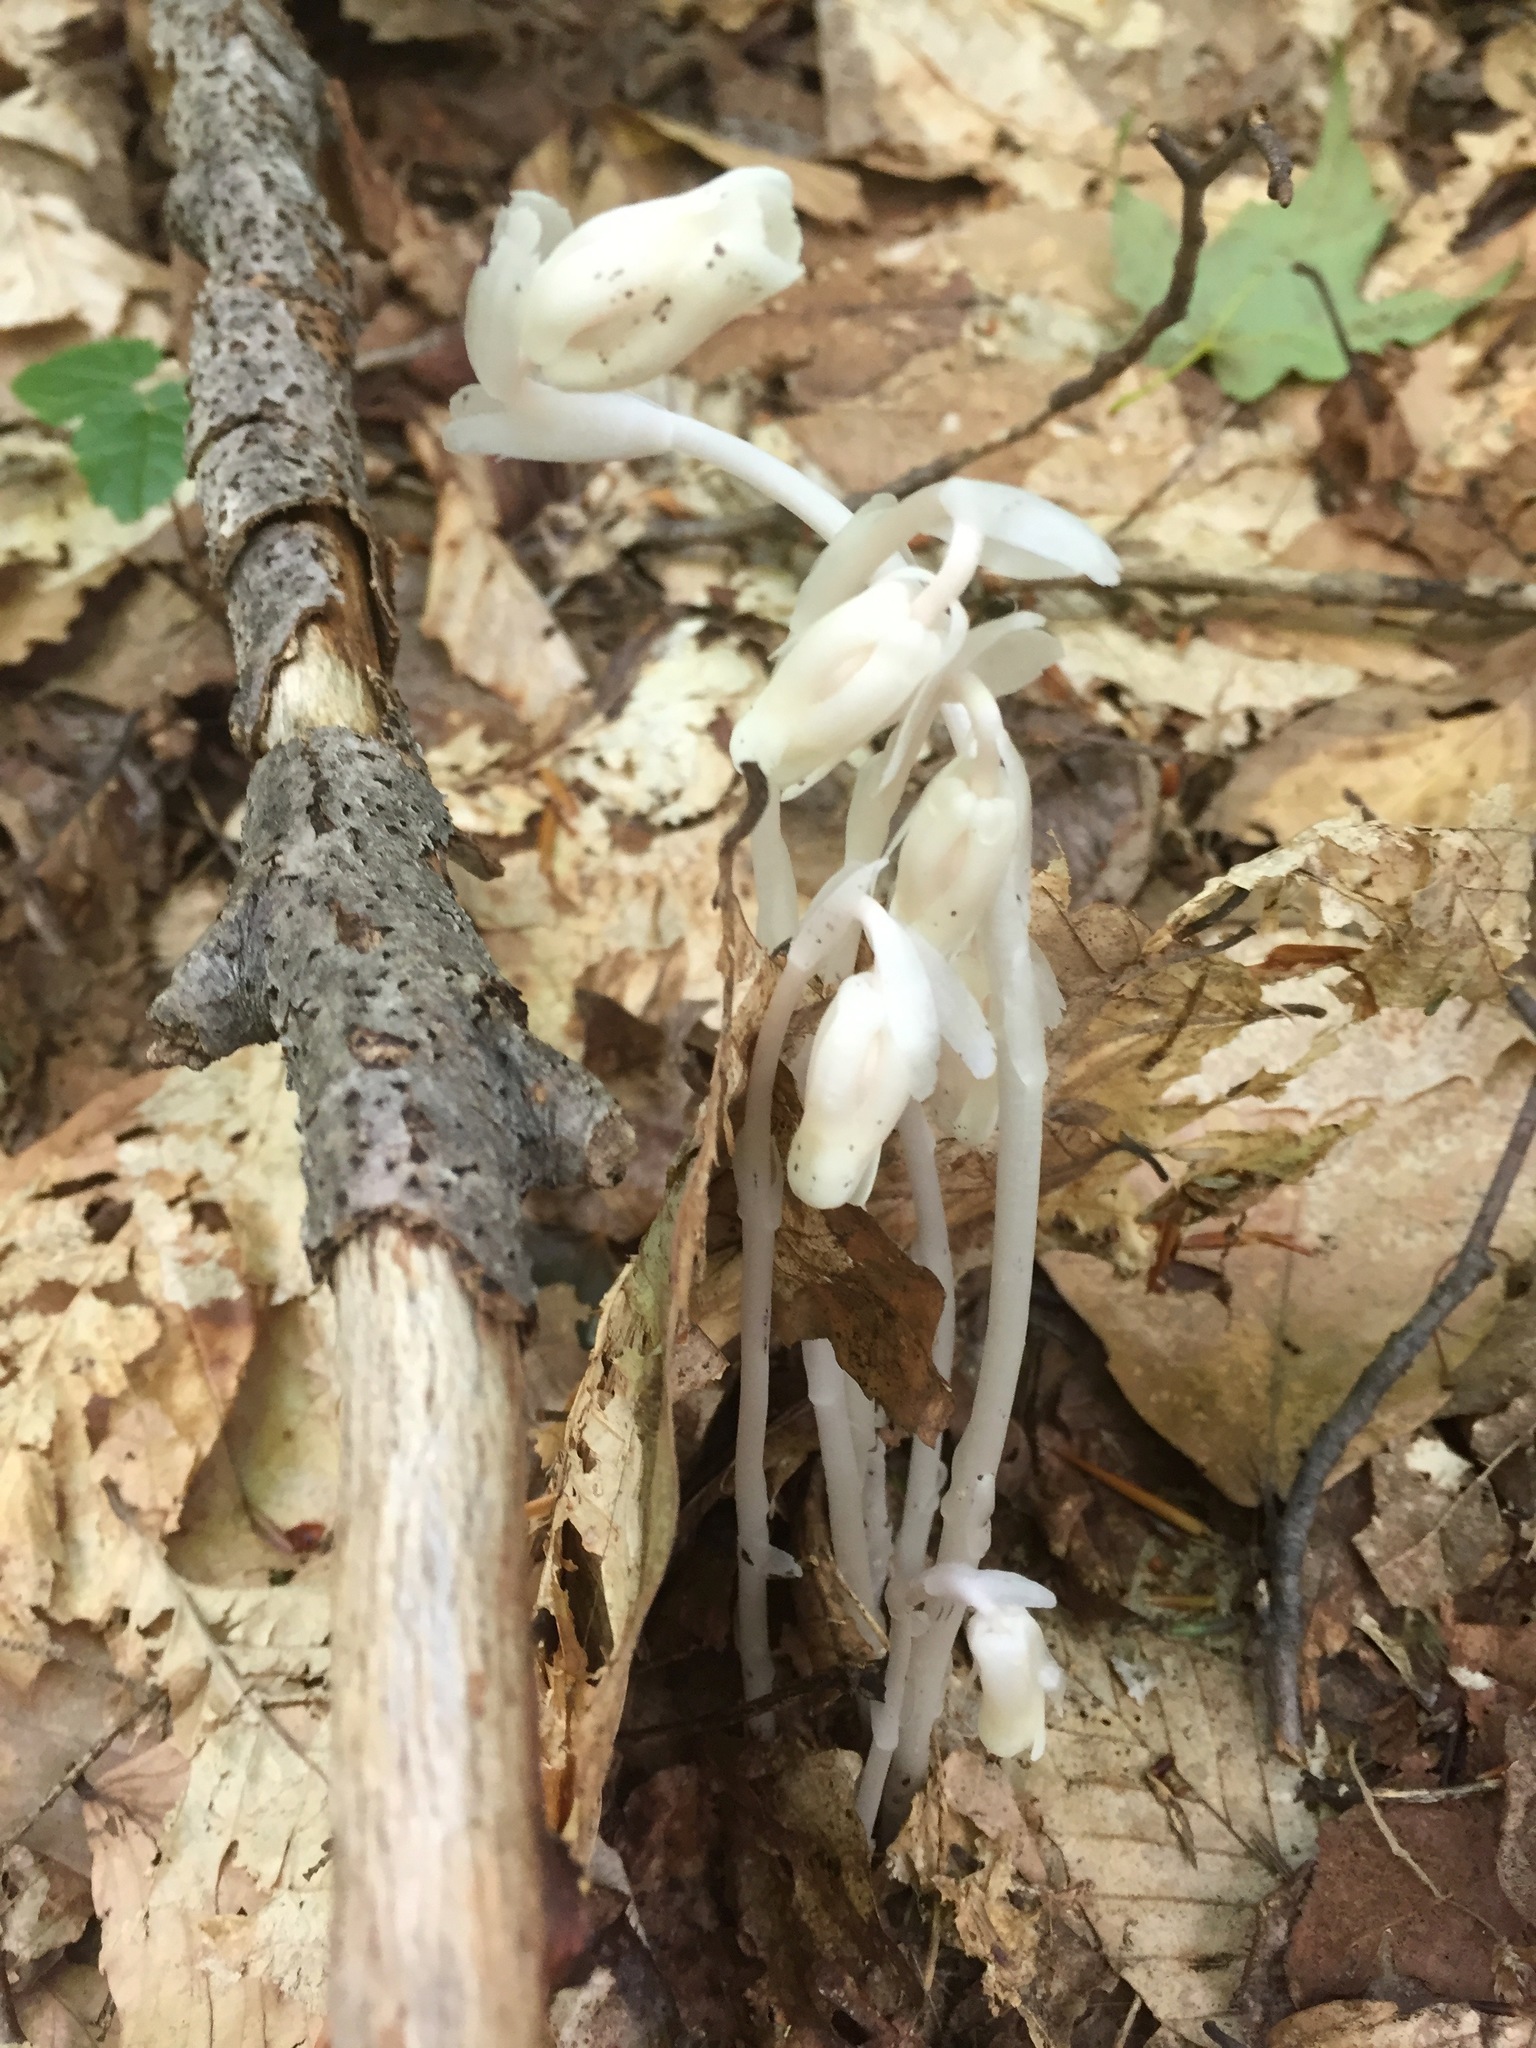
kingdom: Plantae
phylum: Tracheophyta
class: Magnoliopsida
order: Ericales
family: Ericaceae
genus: Monotropa
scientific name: Monotropa uniflora
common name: Convulsion root
